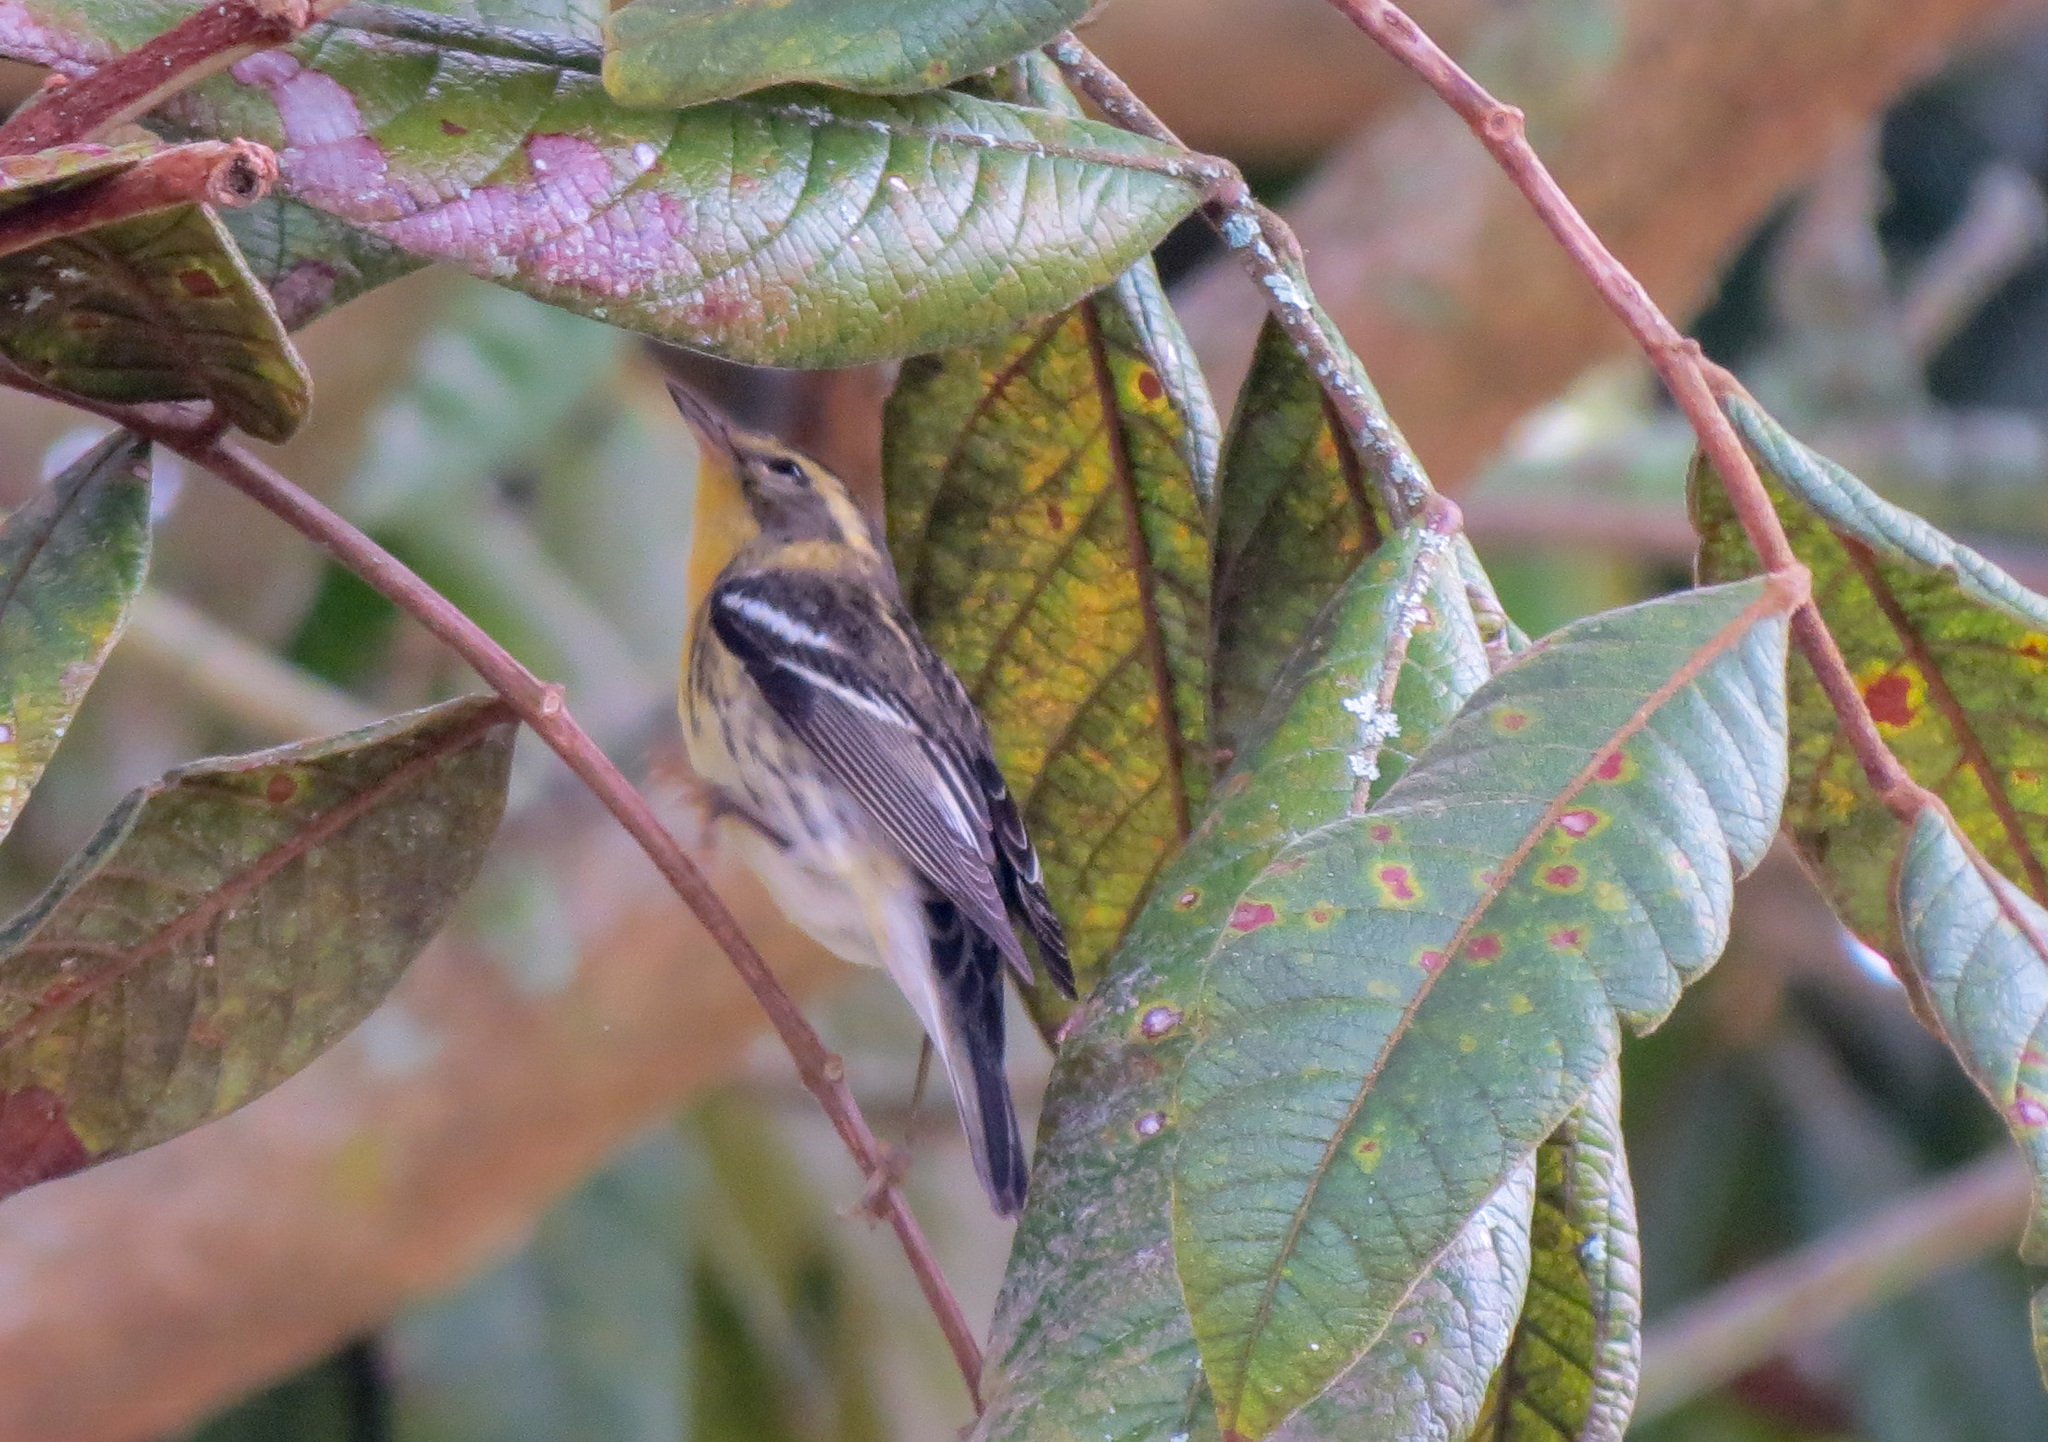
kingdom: Animalia
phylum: Chordata
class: Aves
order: Passeriformes
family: Parulidae
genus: Setophaga
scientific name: Setophaga fusca
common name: Blackburnian warbler
